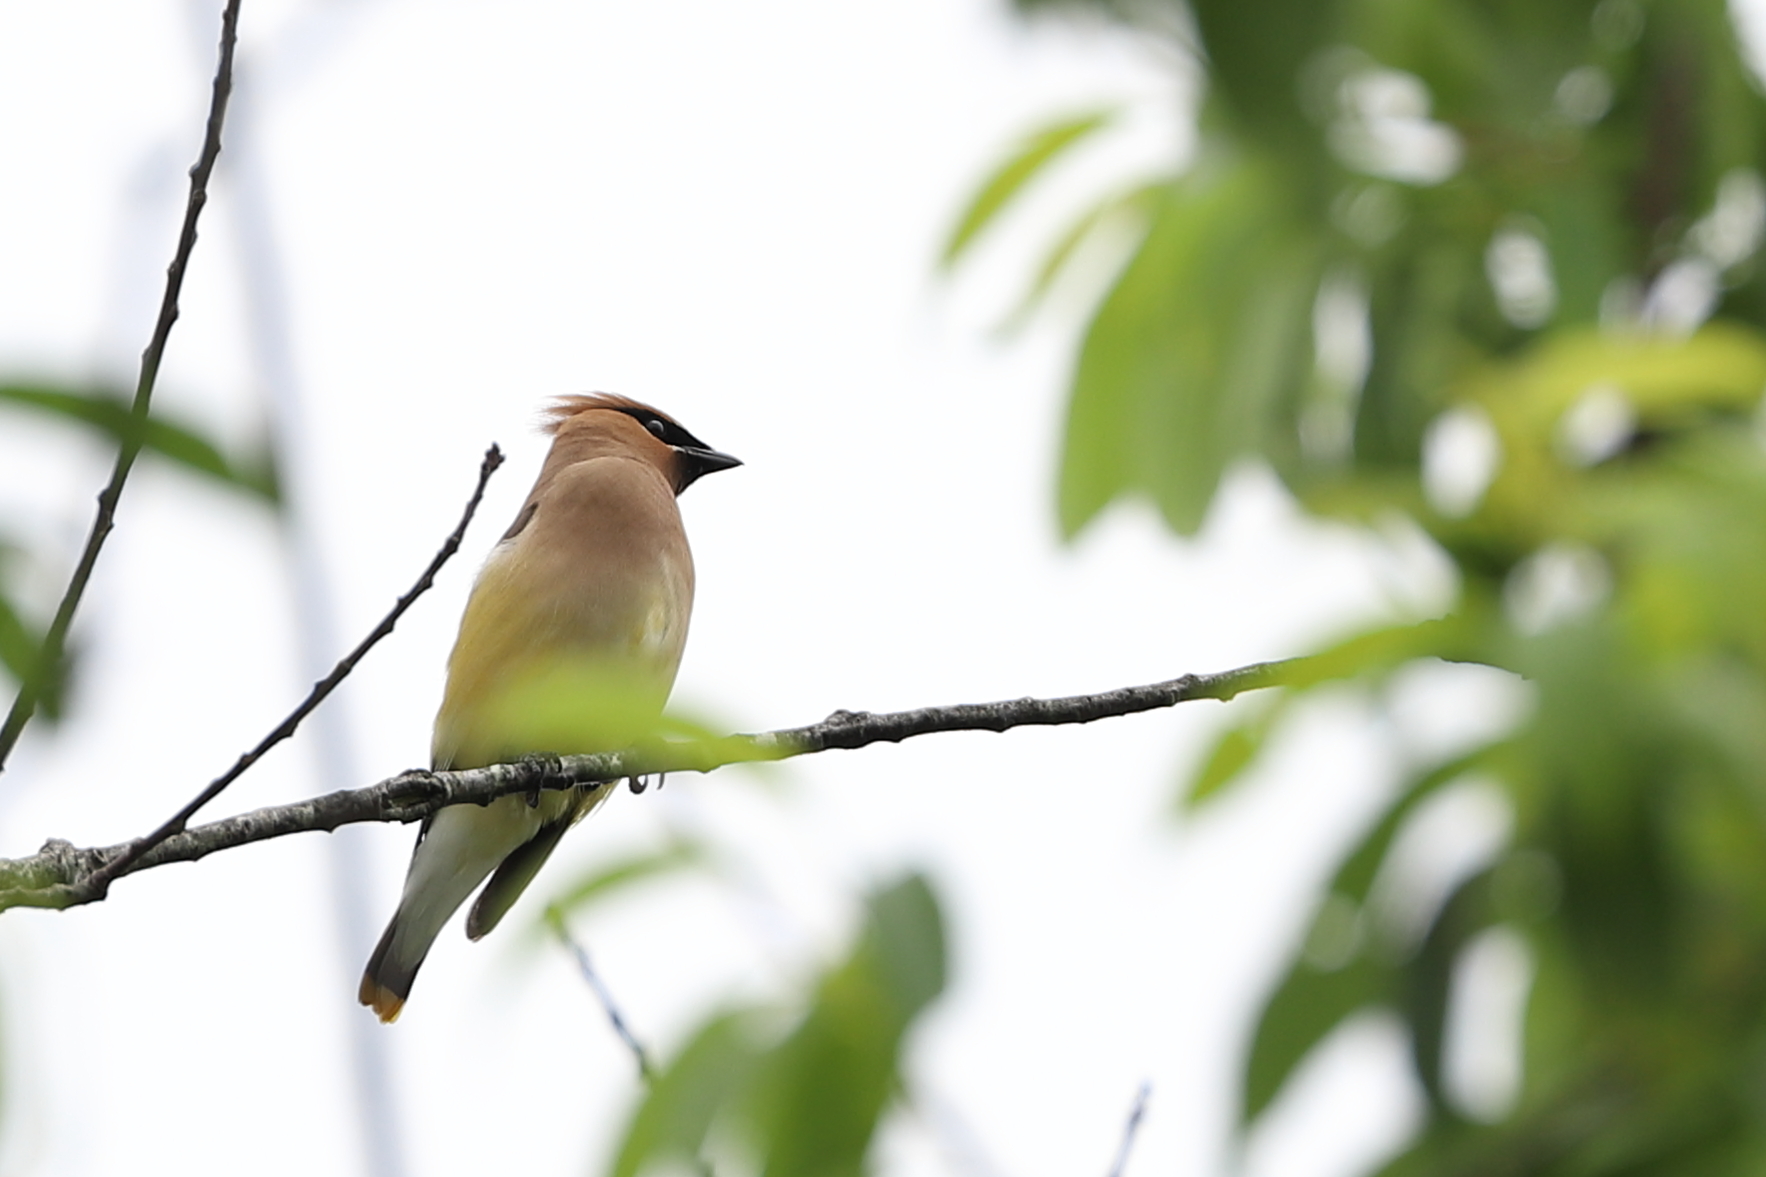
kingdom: Animalia
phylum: Chordata
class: Aves
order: Passeriformes
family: Bombycillidae
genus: Bombycilla
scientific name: Bombycilla cedrorum
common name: Cedar waxwing
